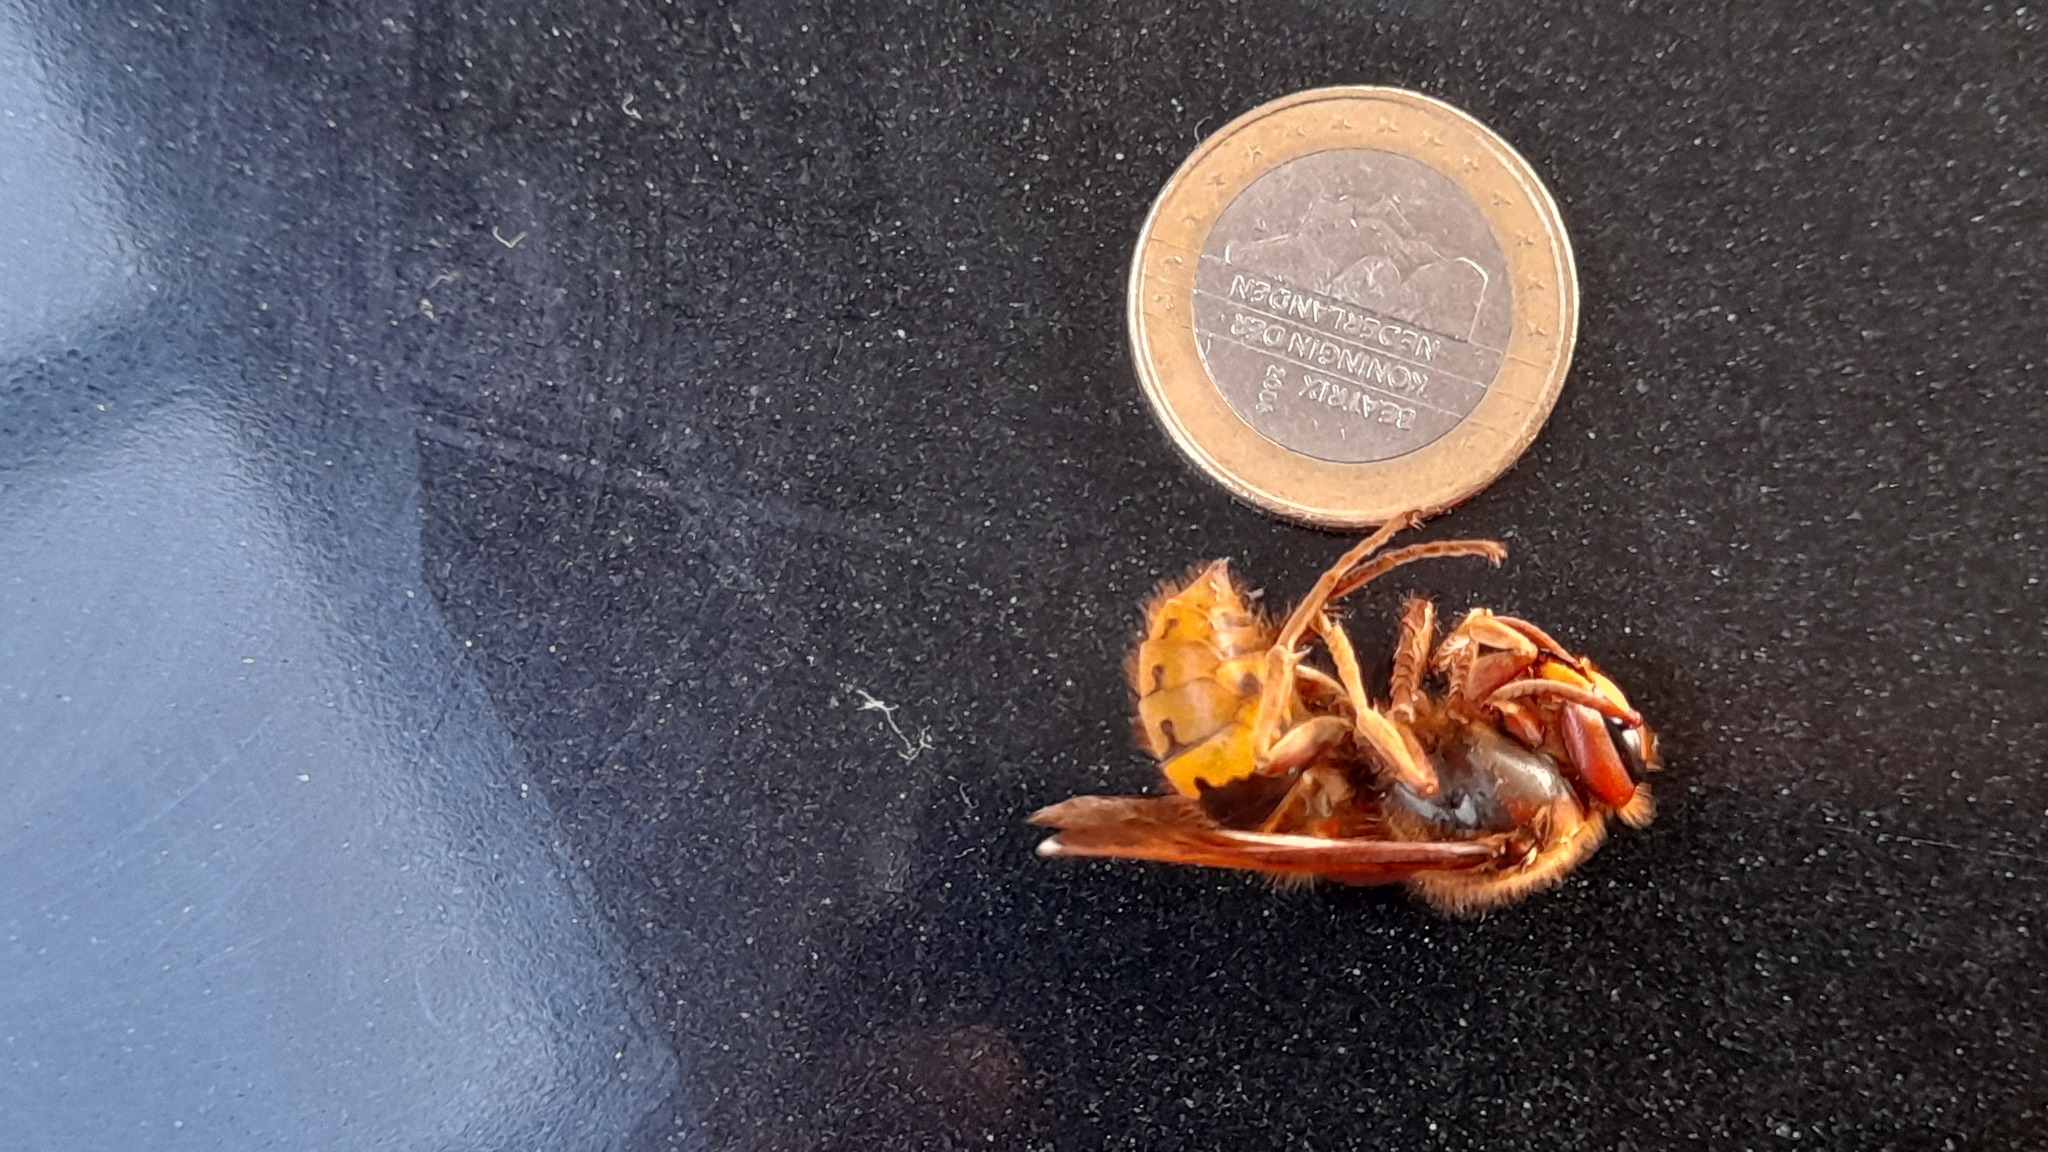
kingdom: Animalia
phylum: Arthropoda
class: Insecta
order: Hymenoptera
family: Vespidae
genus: Vespa
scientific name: Vespa crabro
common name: Hornet
